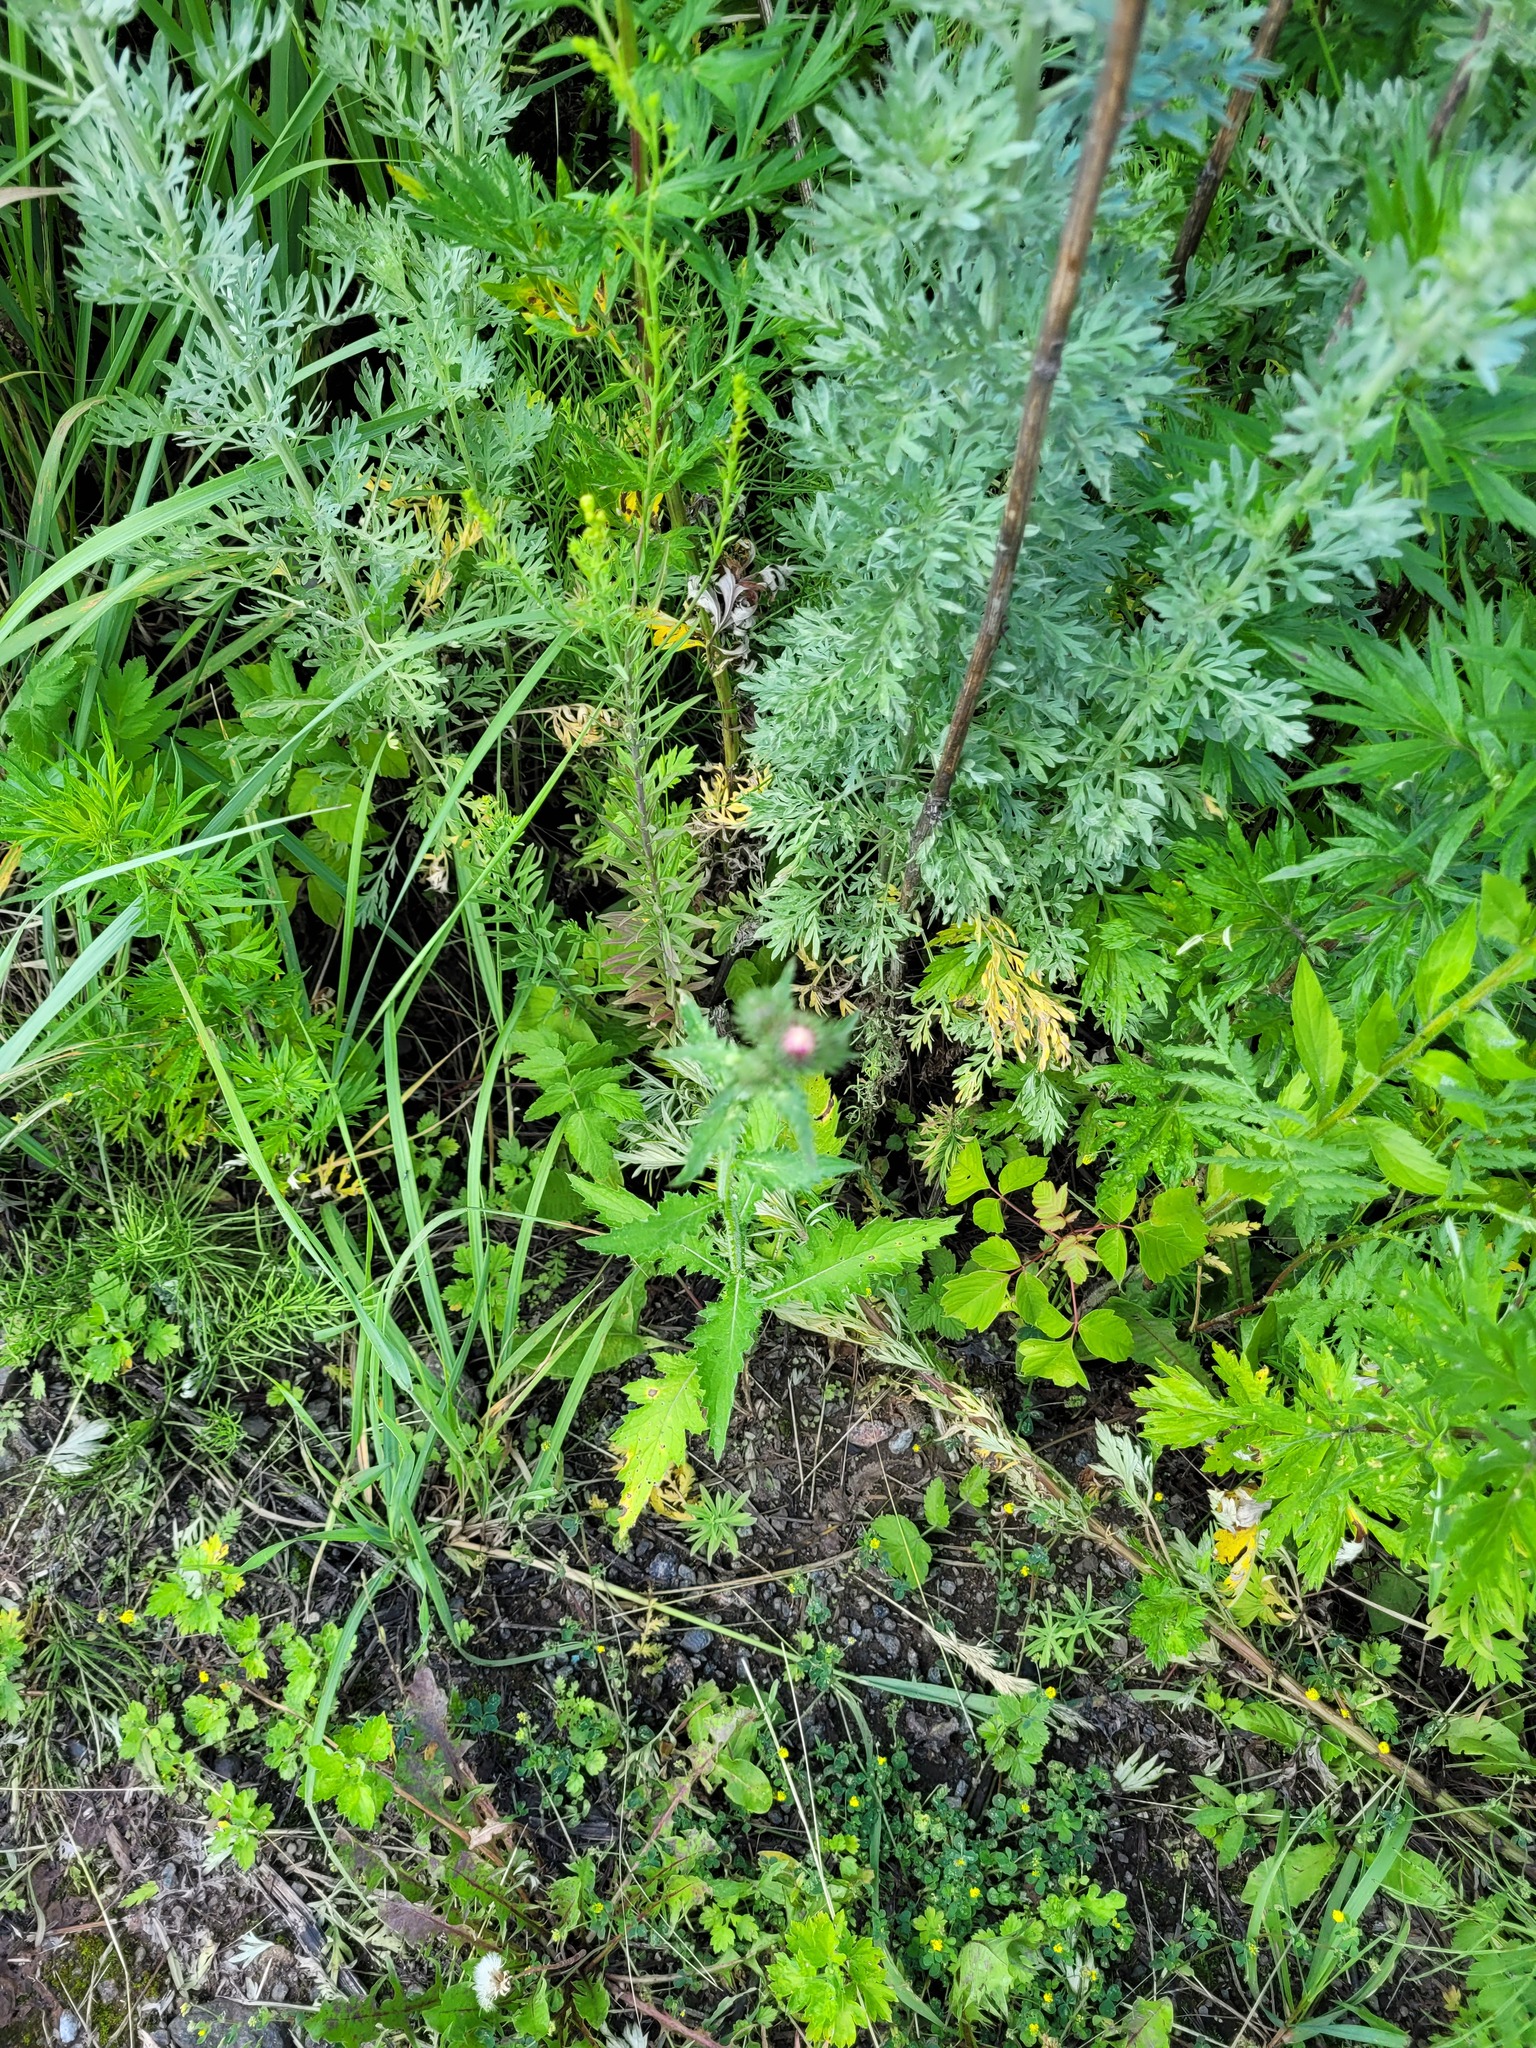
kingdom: Plantae
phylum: Tracheophyta
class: Magnoliopsida
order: Asterales
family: Asteraceae
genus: Carduus
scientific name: Carduus crispus
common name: Welted thistle
